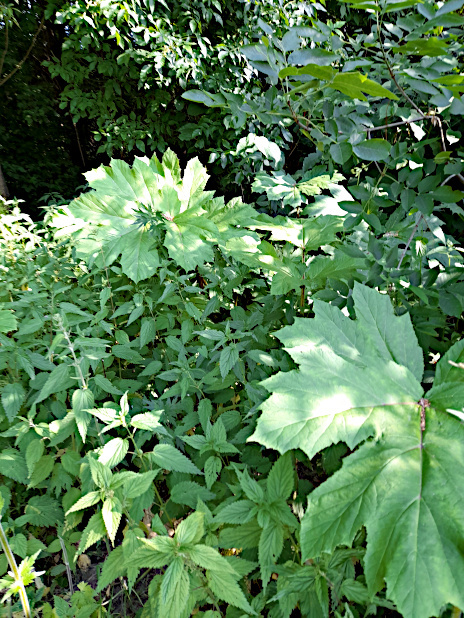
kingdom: Plantae
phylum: Tracheophyta
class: Magnoliopsida
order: Apiales
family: Apiaceae
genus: Heracleum
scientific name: Heracleum sosnowskyi
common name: Sosnowsky's hogweed
